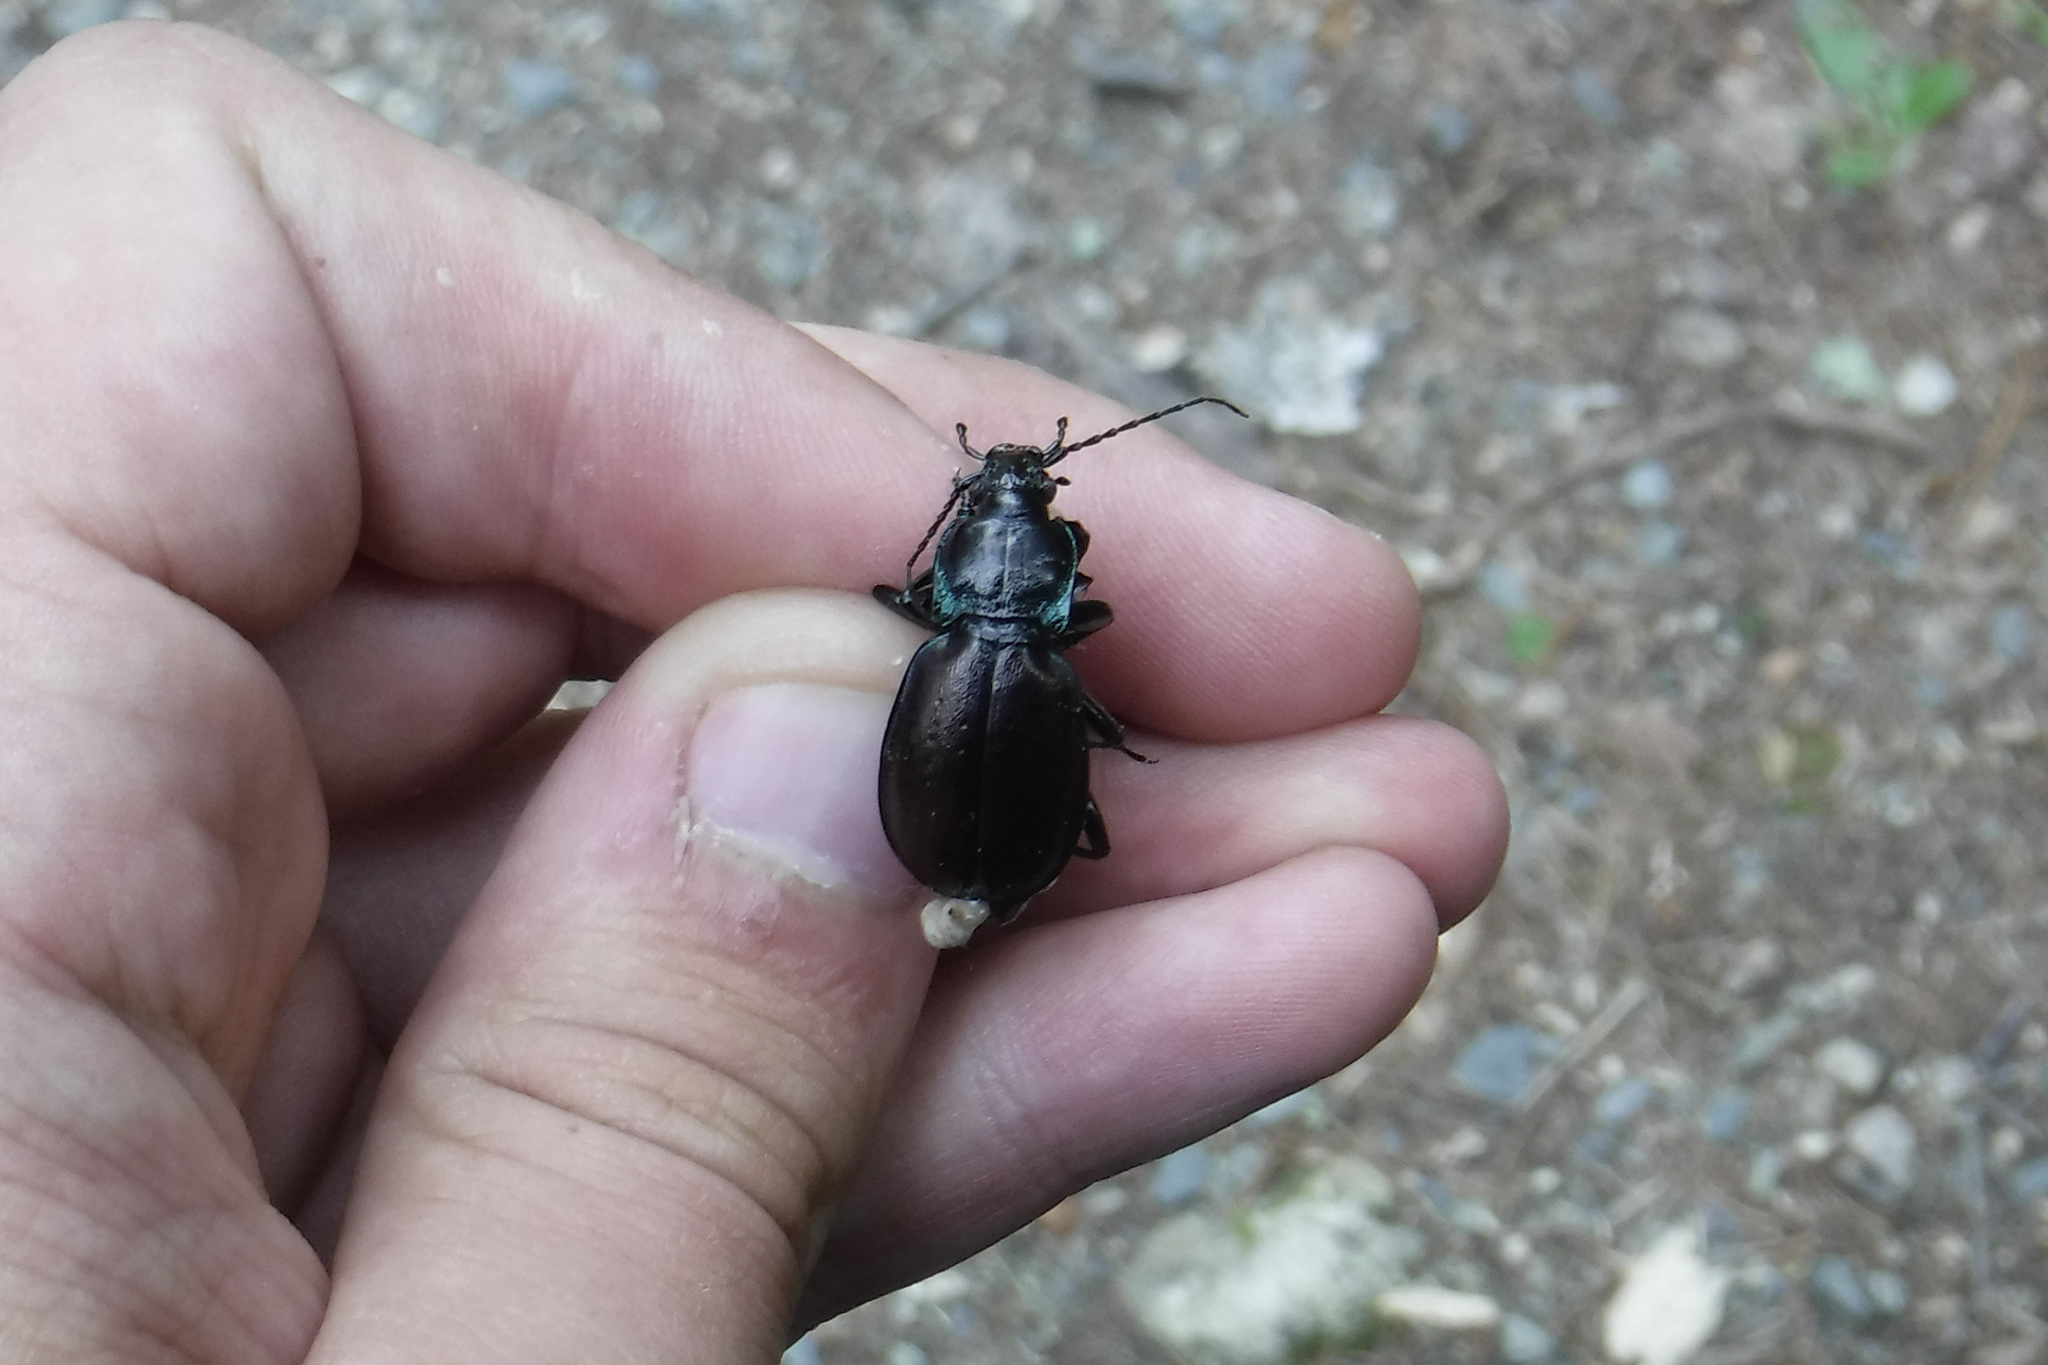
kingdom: Animalia
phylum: Arthropoda
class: Insecta
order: Coleoptera
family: Carabidae
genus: Carabus
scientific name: Carabus nemoralis
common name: European ground beetle
